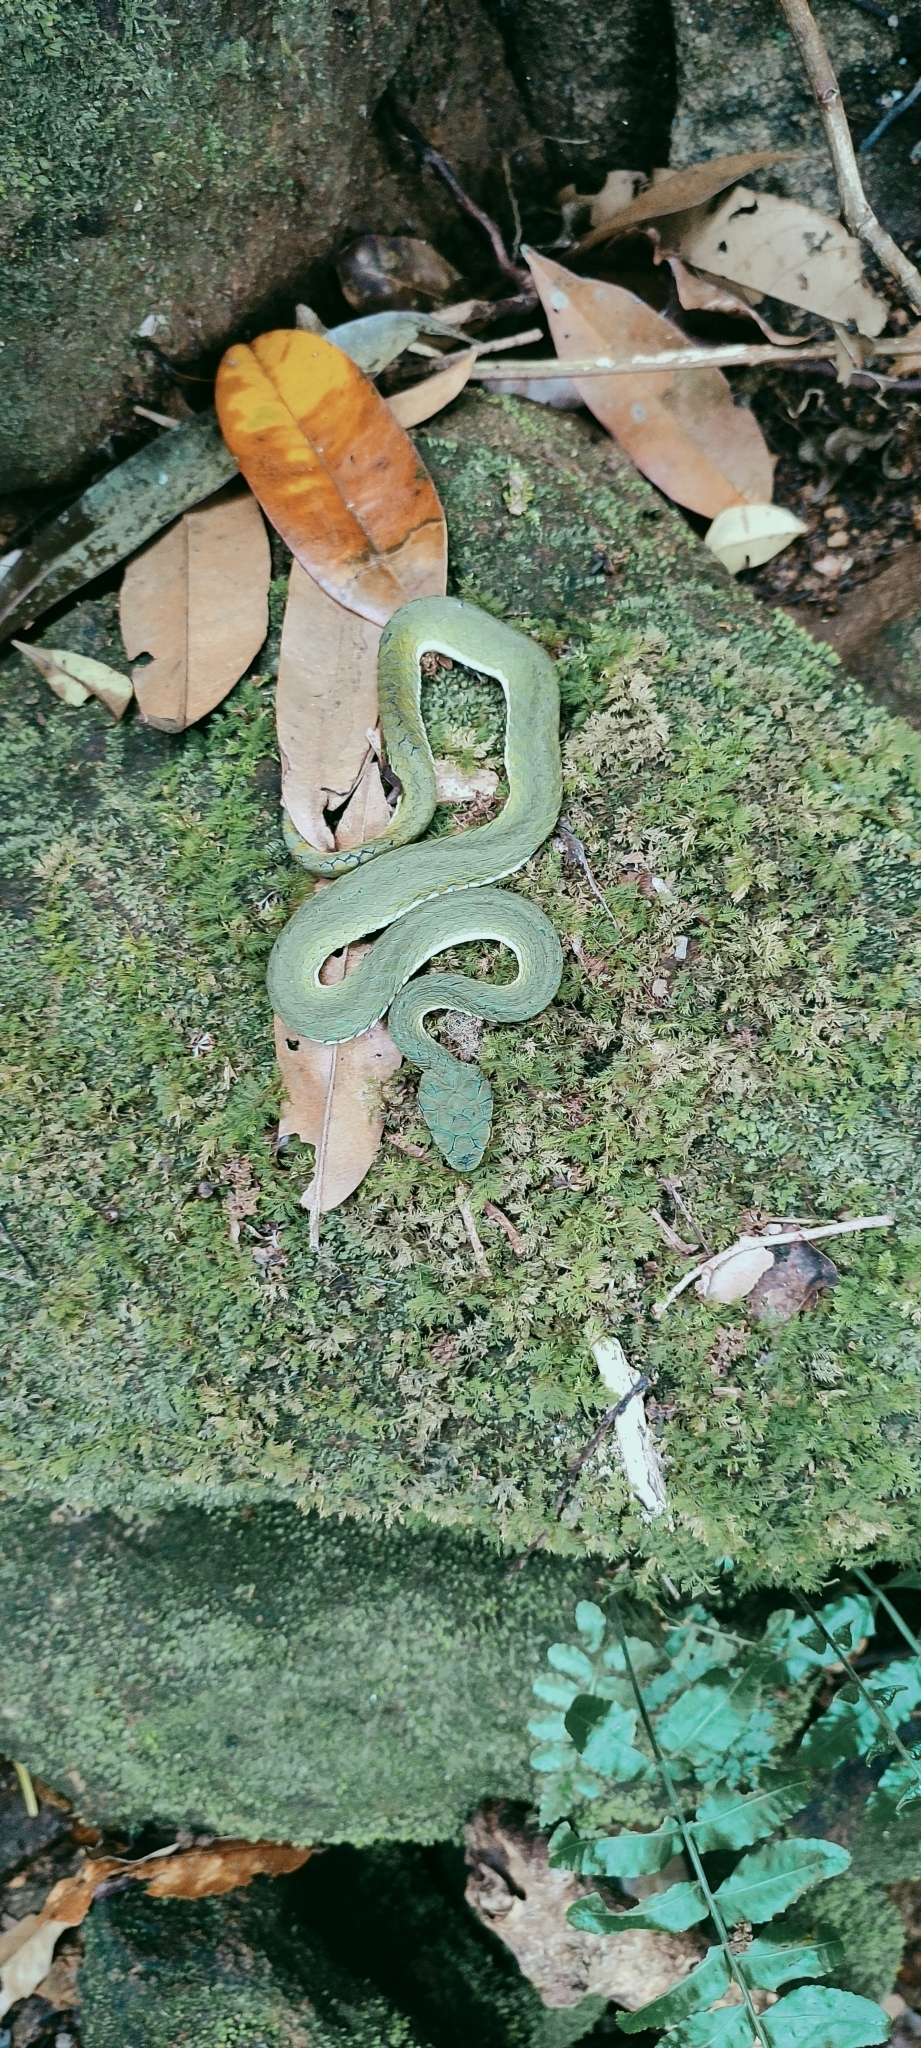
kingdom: Animalia
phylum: Chordata
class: Squamata
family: Viperidae
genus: Craspedocephalus
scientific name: Craspedocephalus macrolepis
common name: Large-scaled pit viper
